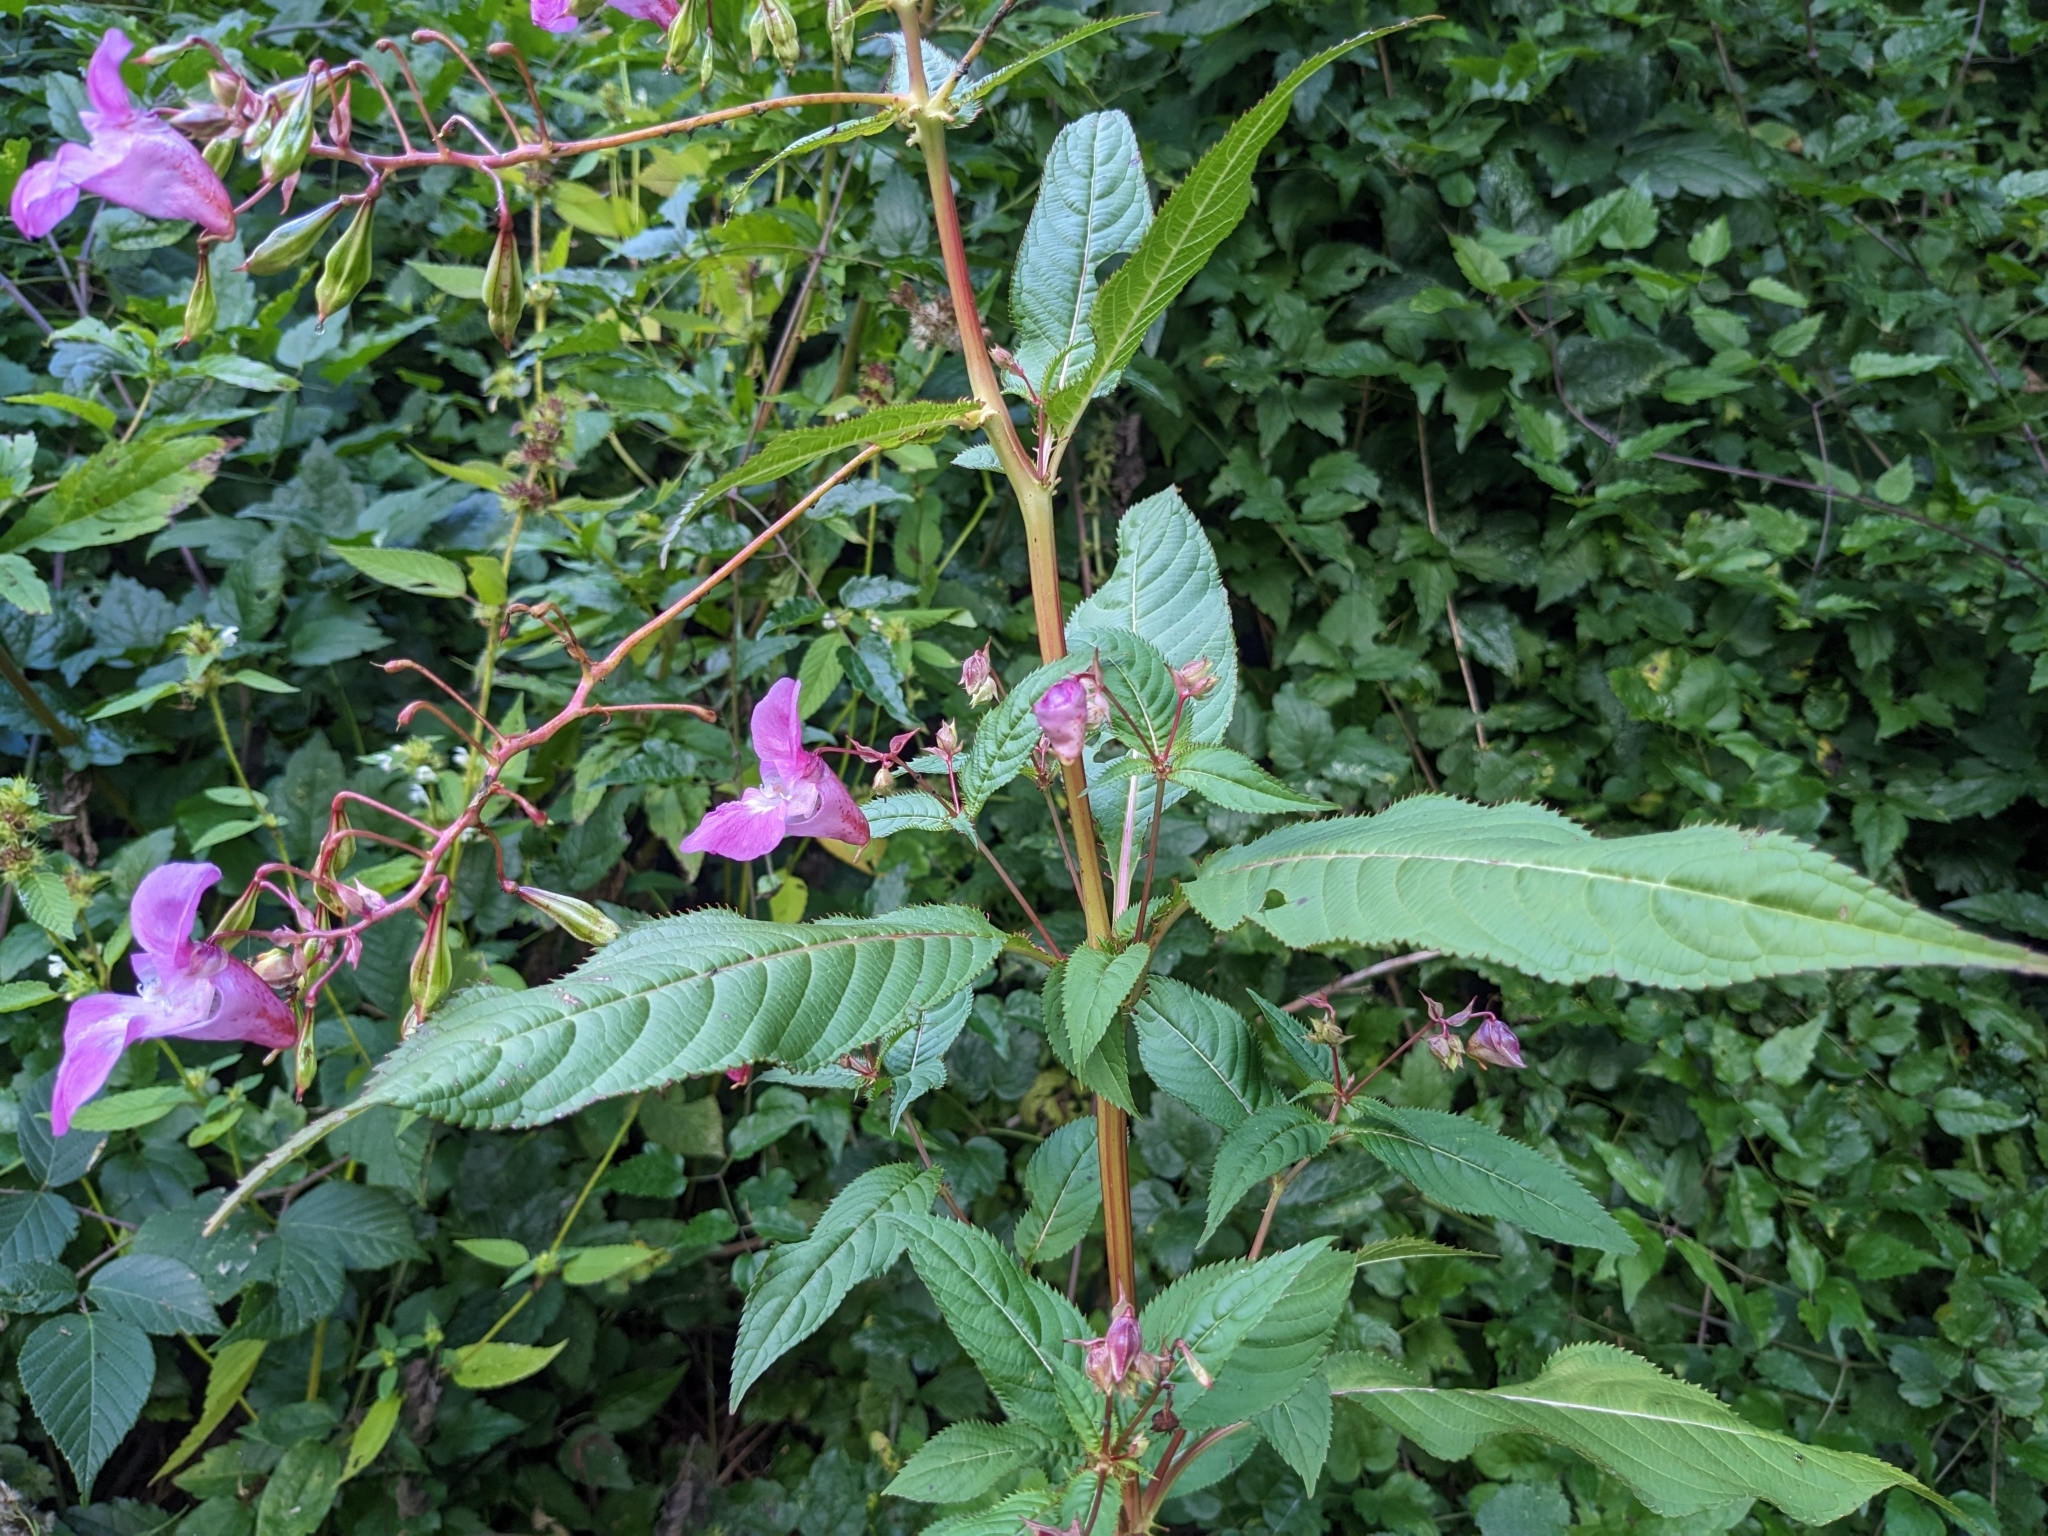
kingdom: Plantae
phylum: Tracheophyta
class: Magnoliopsida
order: Ericales
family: Balsaminaceae
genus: Impatiens
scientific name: Impatiens glandulifera
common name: Himalayan balsam
